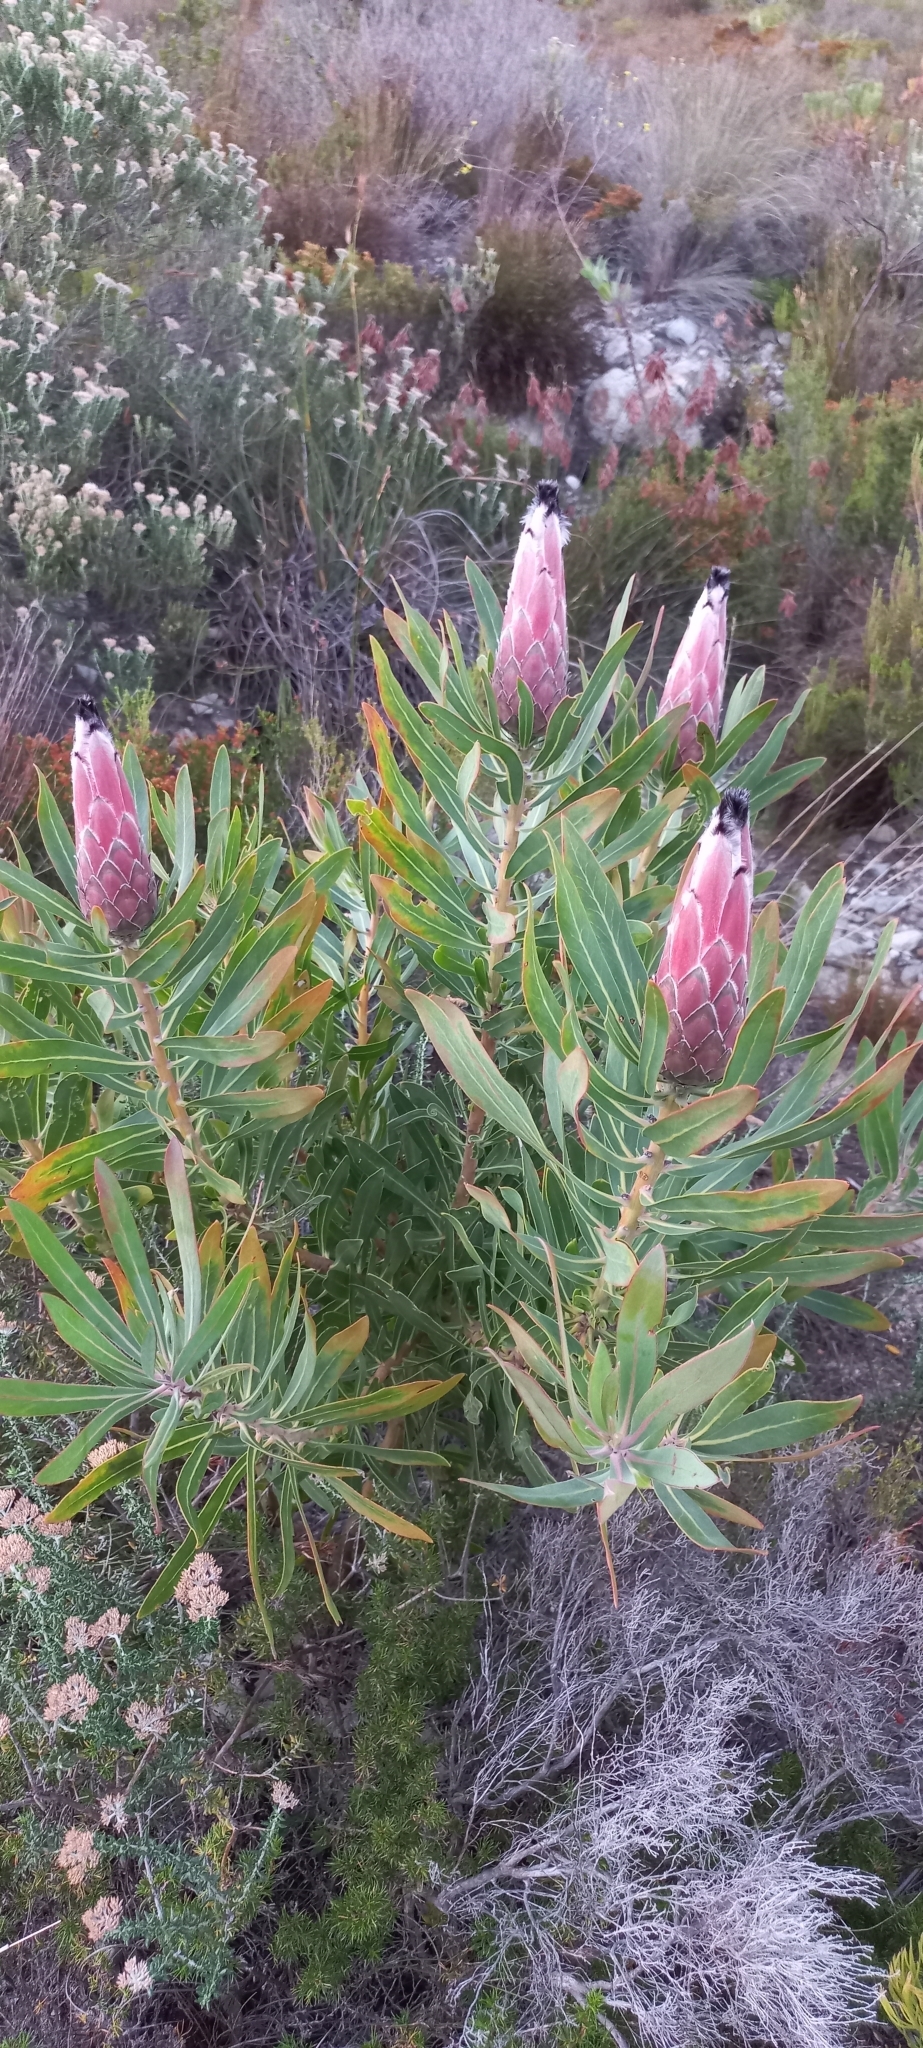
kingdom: Plantae
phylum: Tracheophyta
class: Magnoliopsida
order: Proteales
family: Proteaceae
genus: Protea
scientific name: Protea
